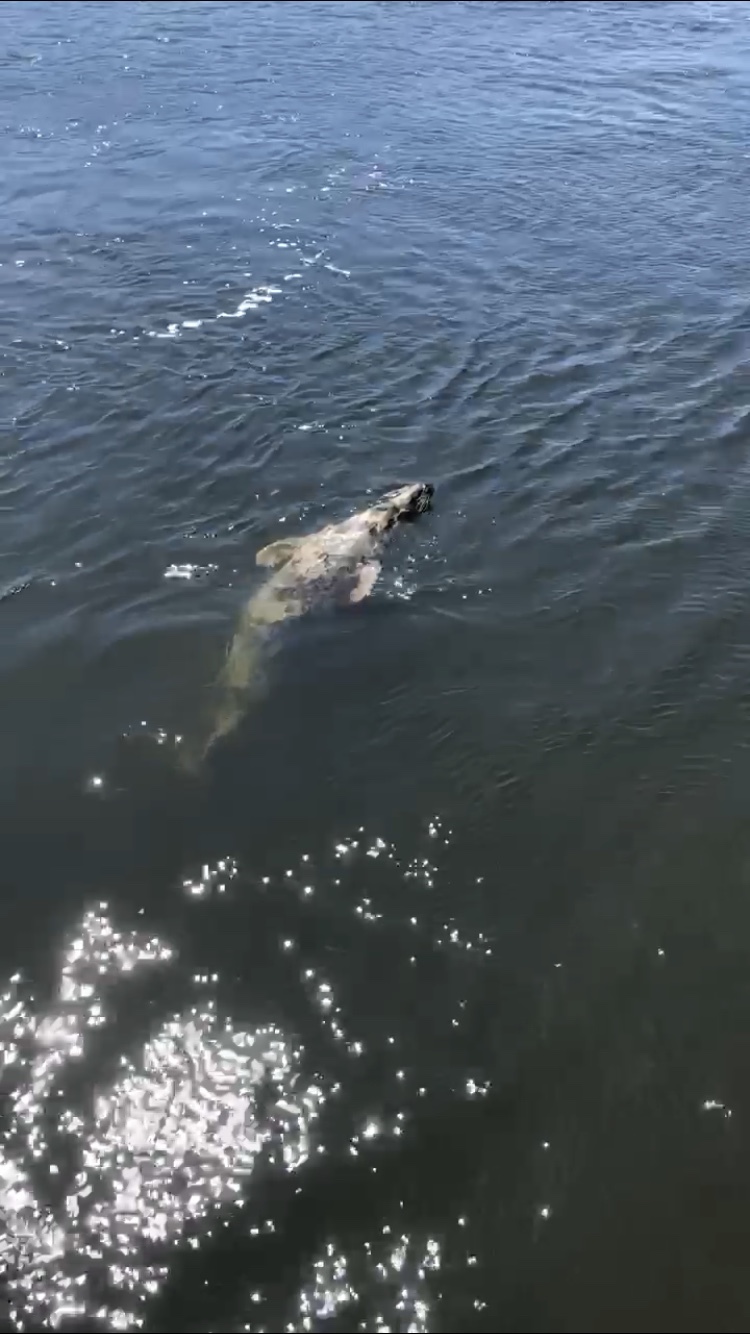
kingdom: Animalia
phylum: Chordata
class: Mammalia
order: Carnivora
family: Phocidae
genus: Halichoerus
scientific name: Halichoerus grypus
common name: Grey seal
